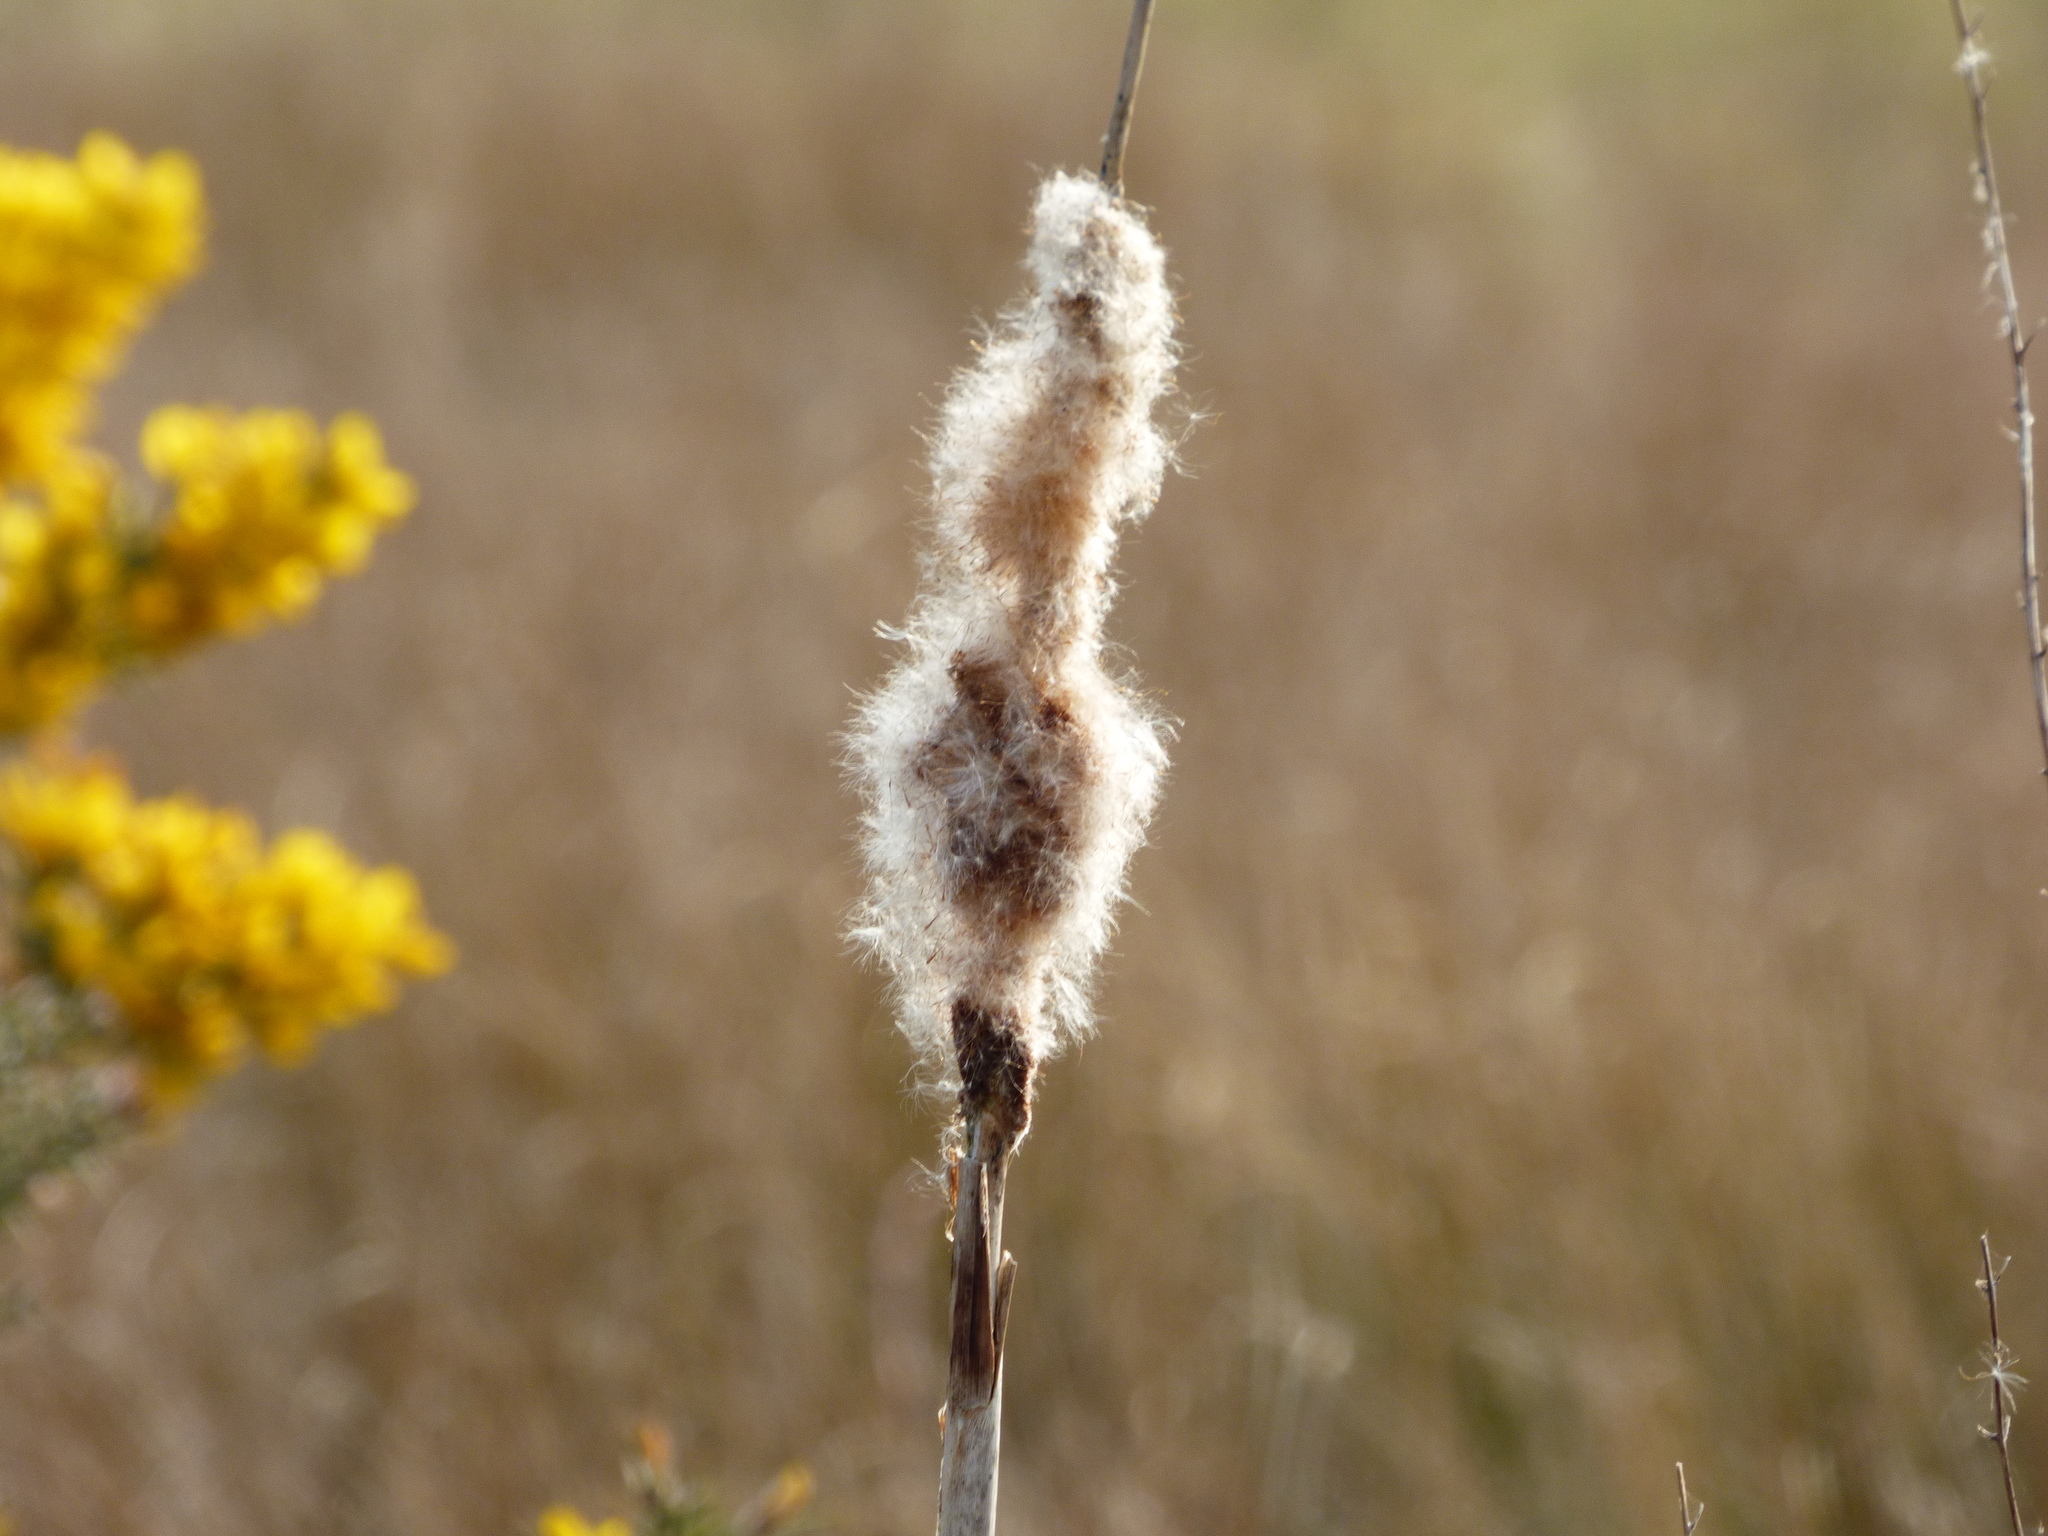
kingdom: Plantae
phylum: Tracheophyta
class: Liliopsida
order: Poales
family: Typhaceae
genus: Typha
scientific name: Typha latifolia
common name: Broadleaf cattail
